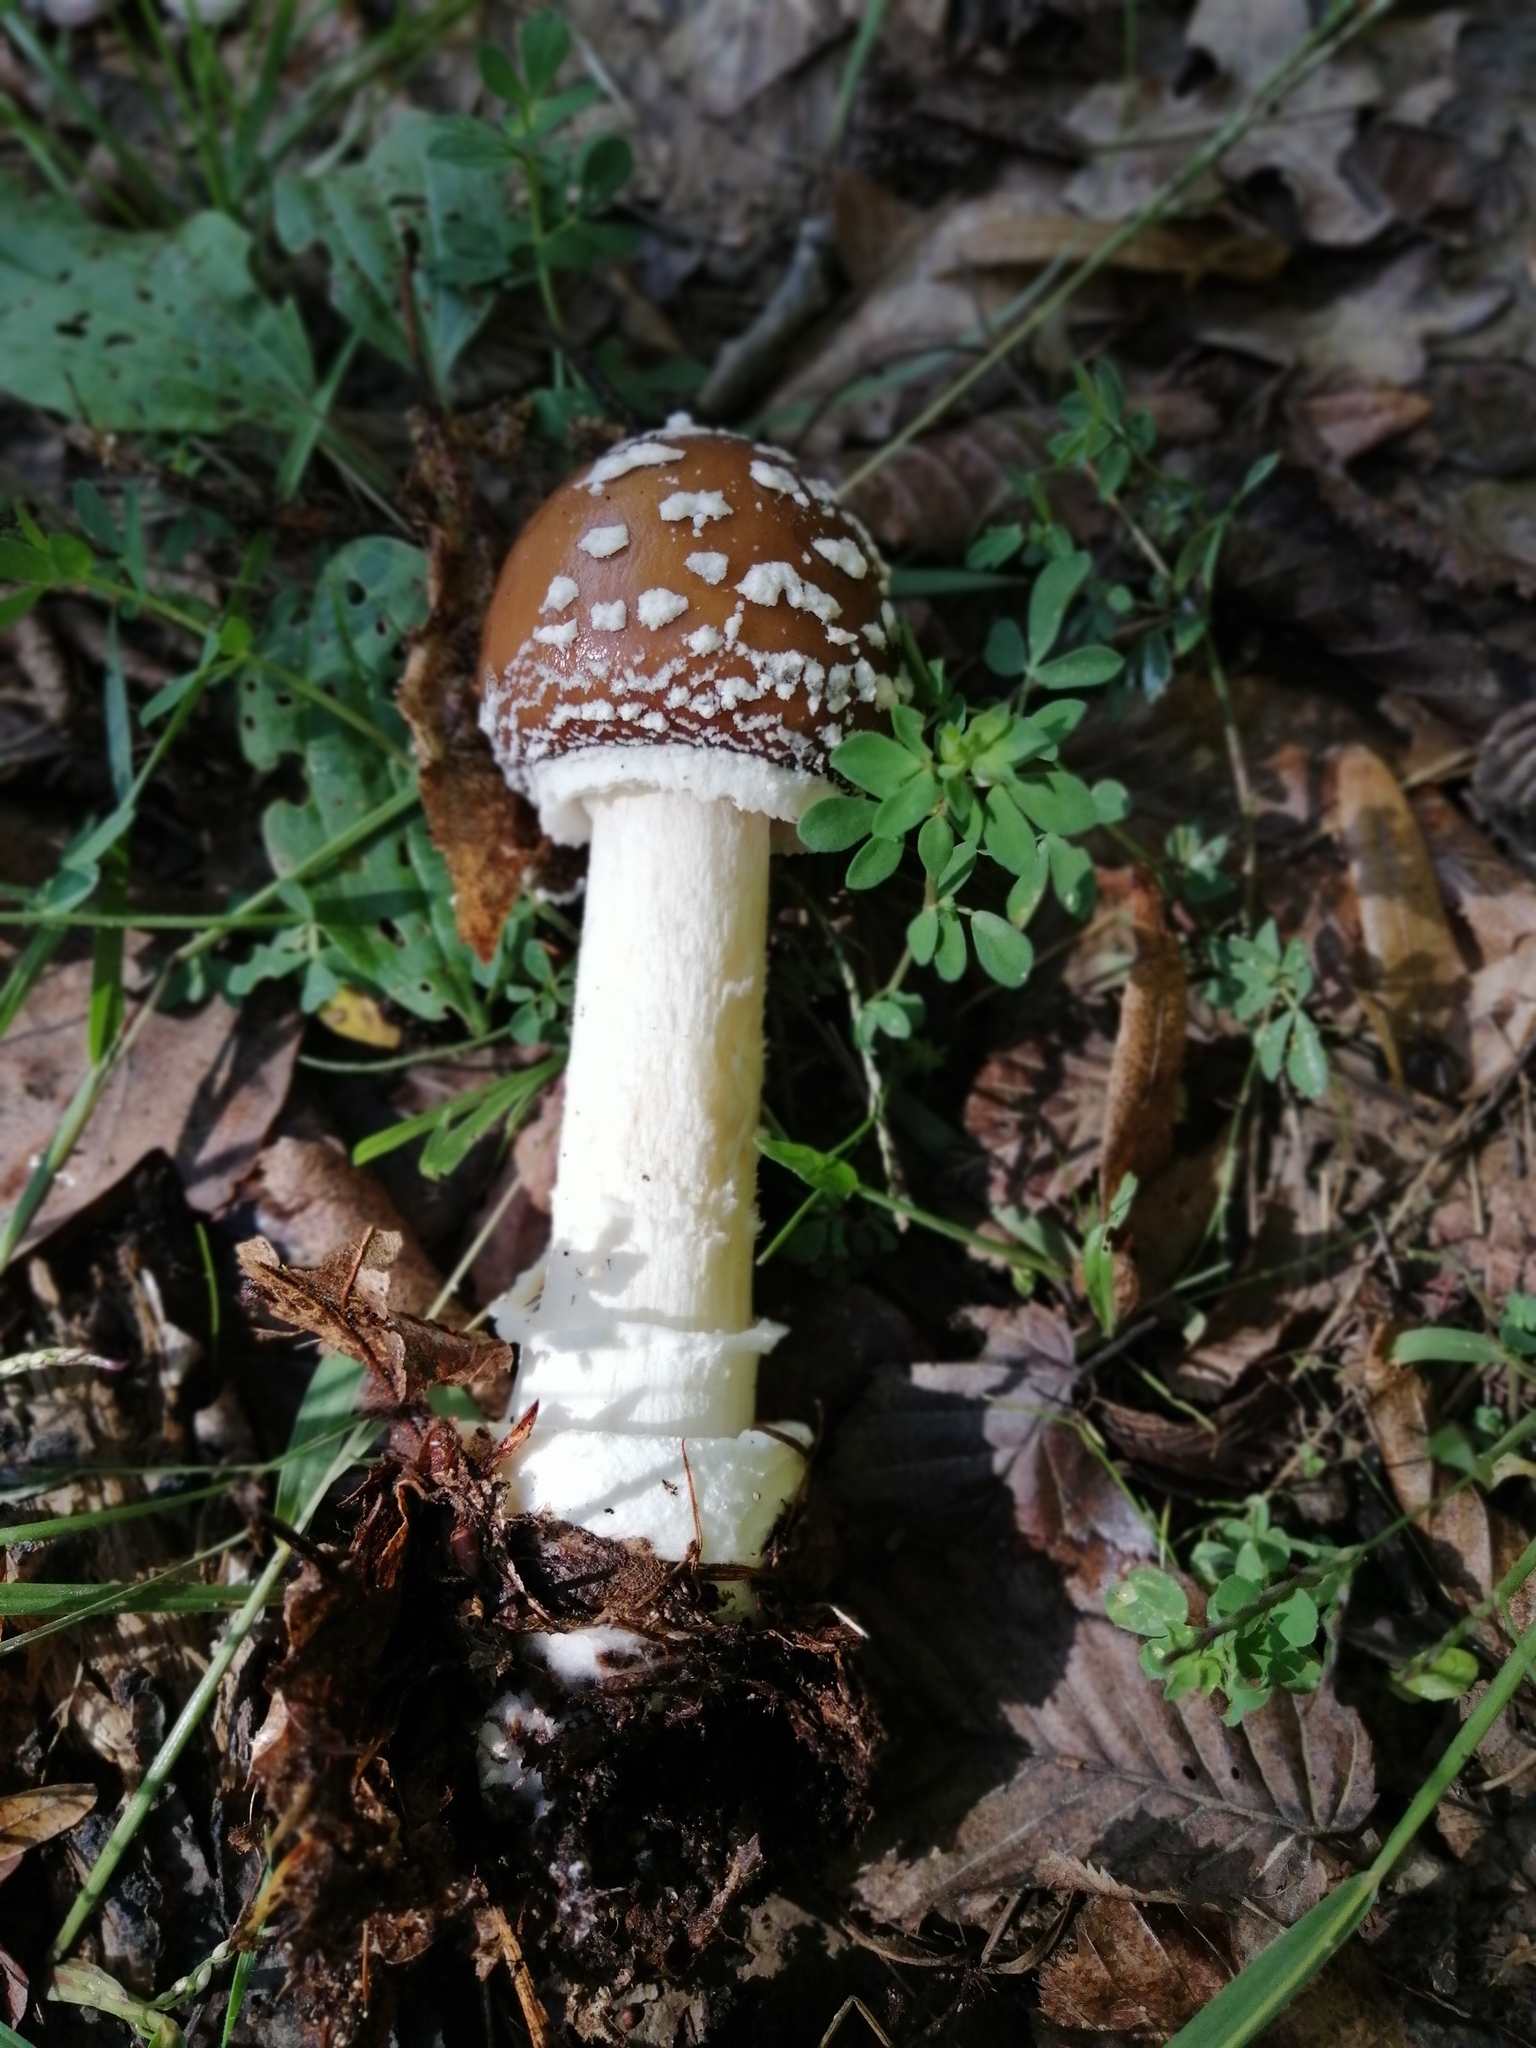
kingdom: Fungi
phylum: Basidiomycota
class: Agaricomycetes
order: Agaricales
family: Amanitaceae
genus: Amanita
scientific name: Amanita pantherina
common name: Panthercap
